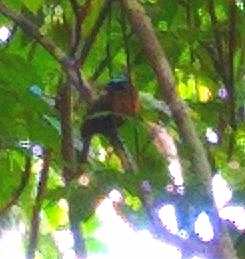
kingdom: Animalia
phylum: Chordata
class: Aves
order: Coraciiformes
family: Momotidae
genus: Momotus
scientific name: Momotus lessonii
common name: Lesson's motmot
